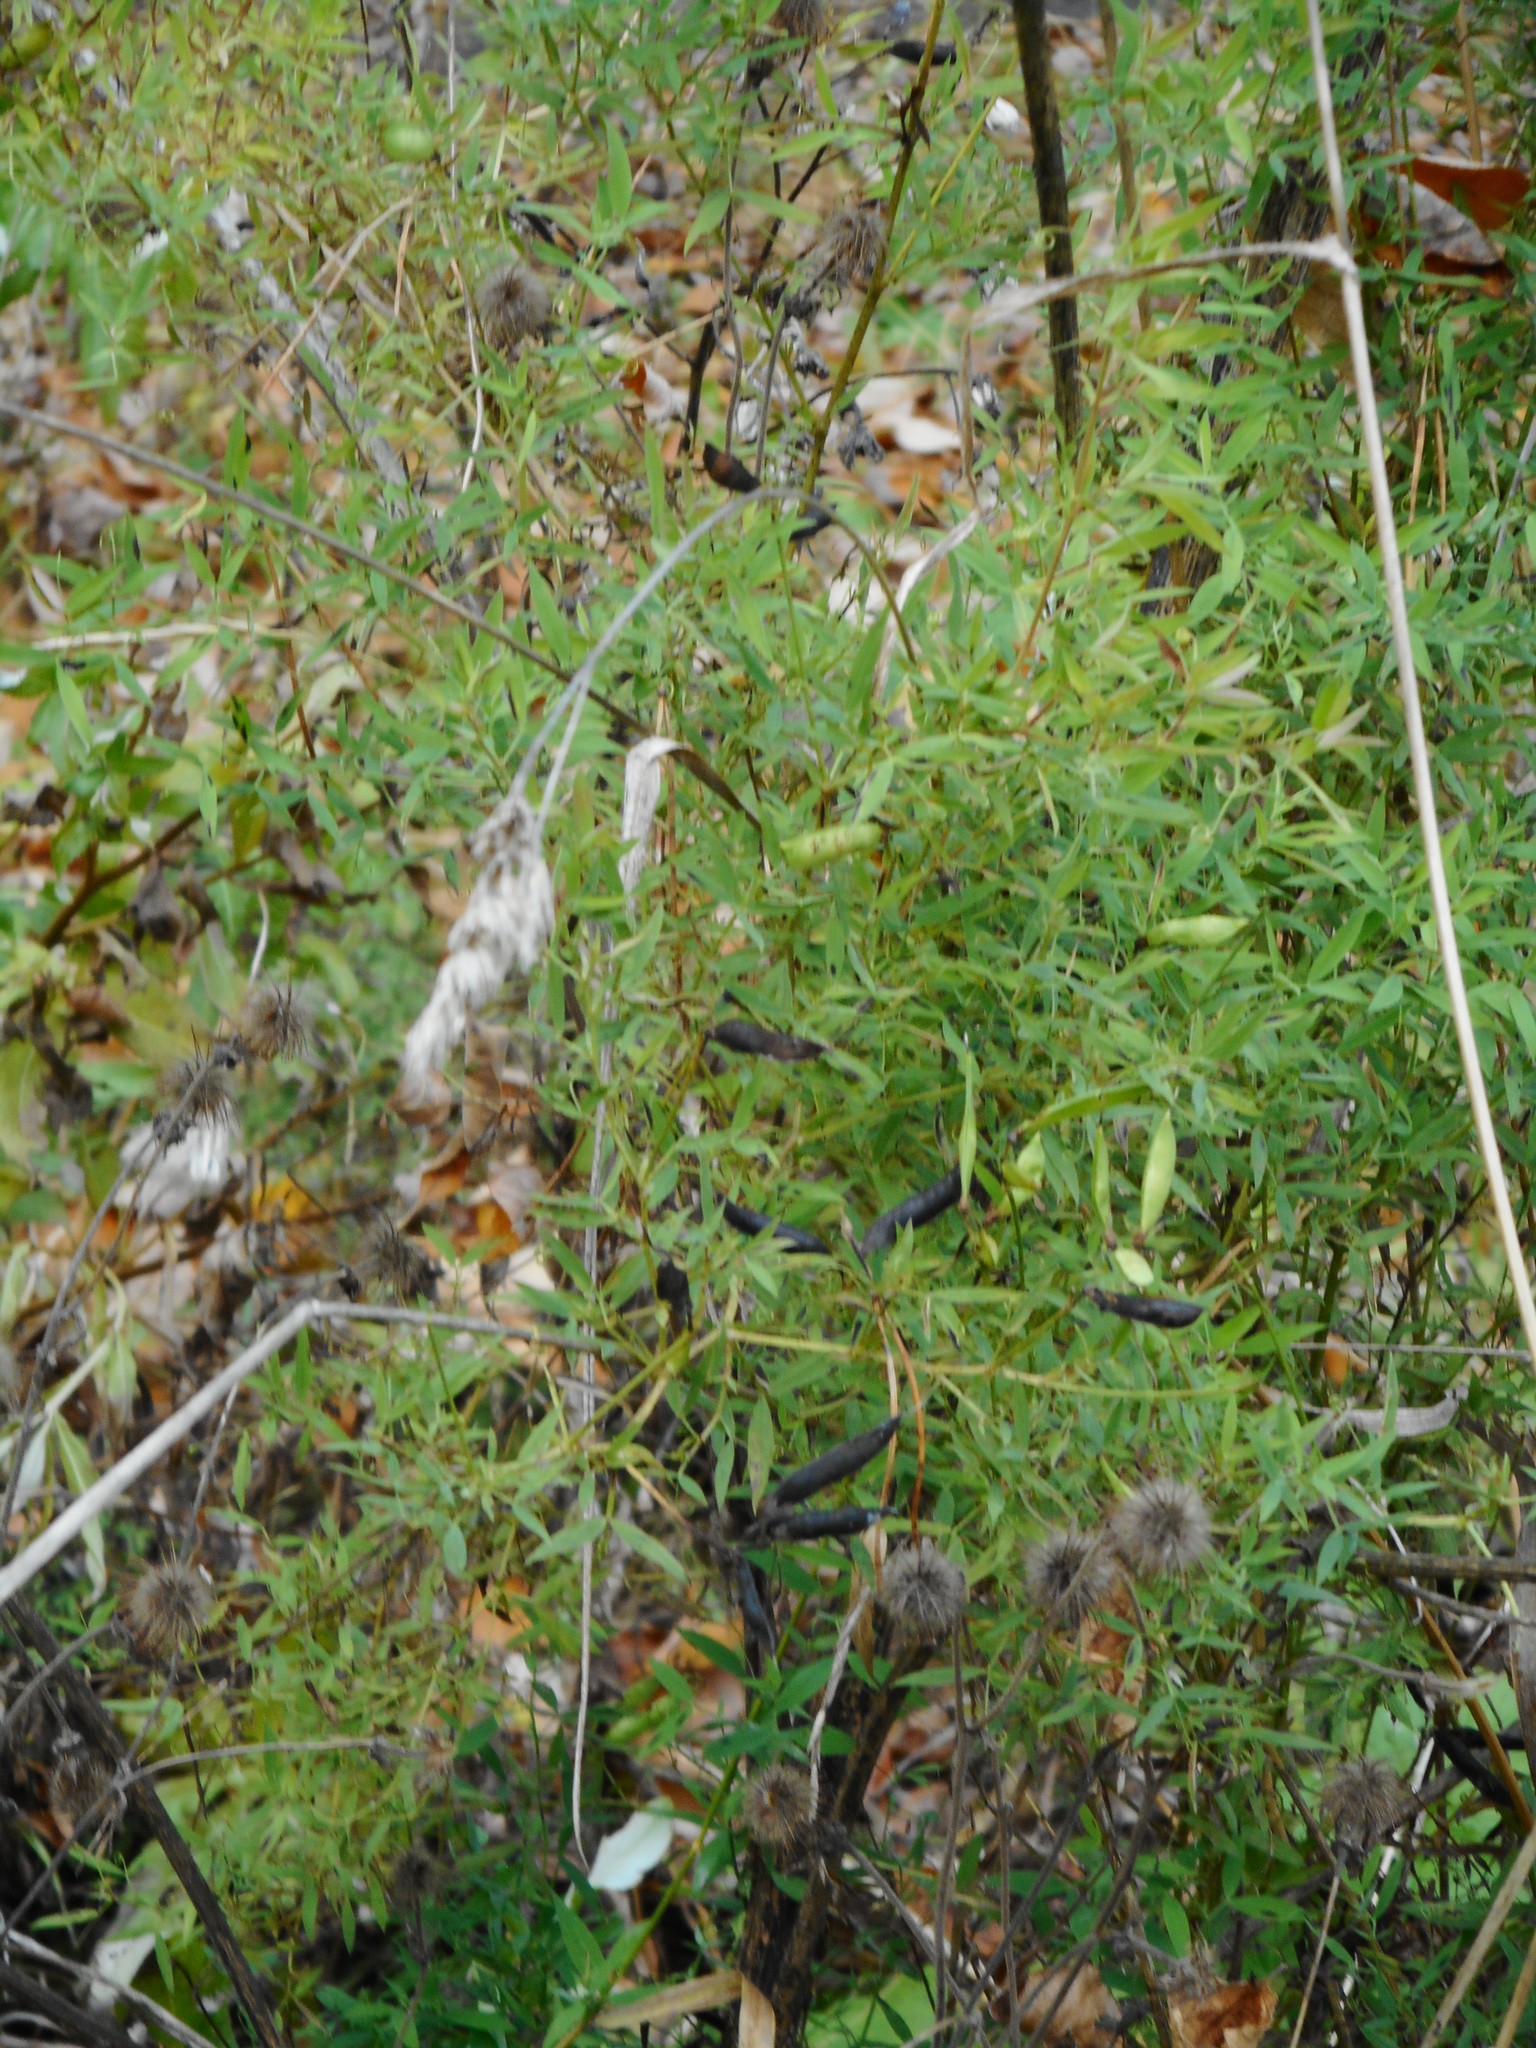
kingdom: Plantae
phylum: Tracheophyta
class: Magnoliopsida
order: Fabales
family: Fabaceae
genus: Lathyrus
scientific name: Lathyrus pratensis
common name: Meadow vetchling
